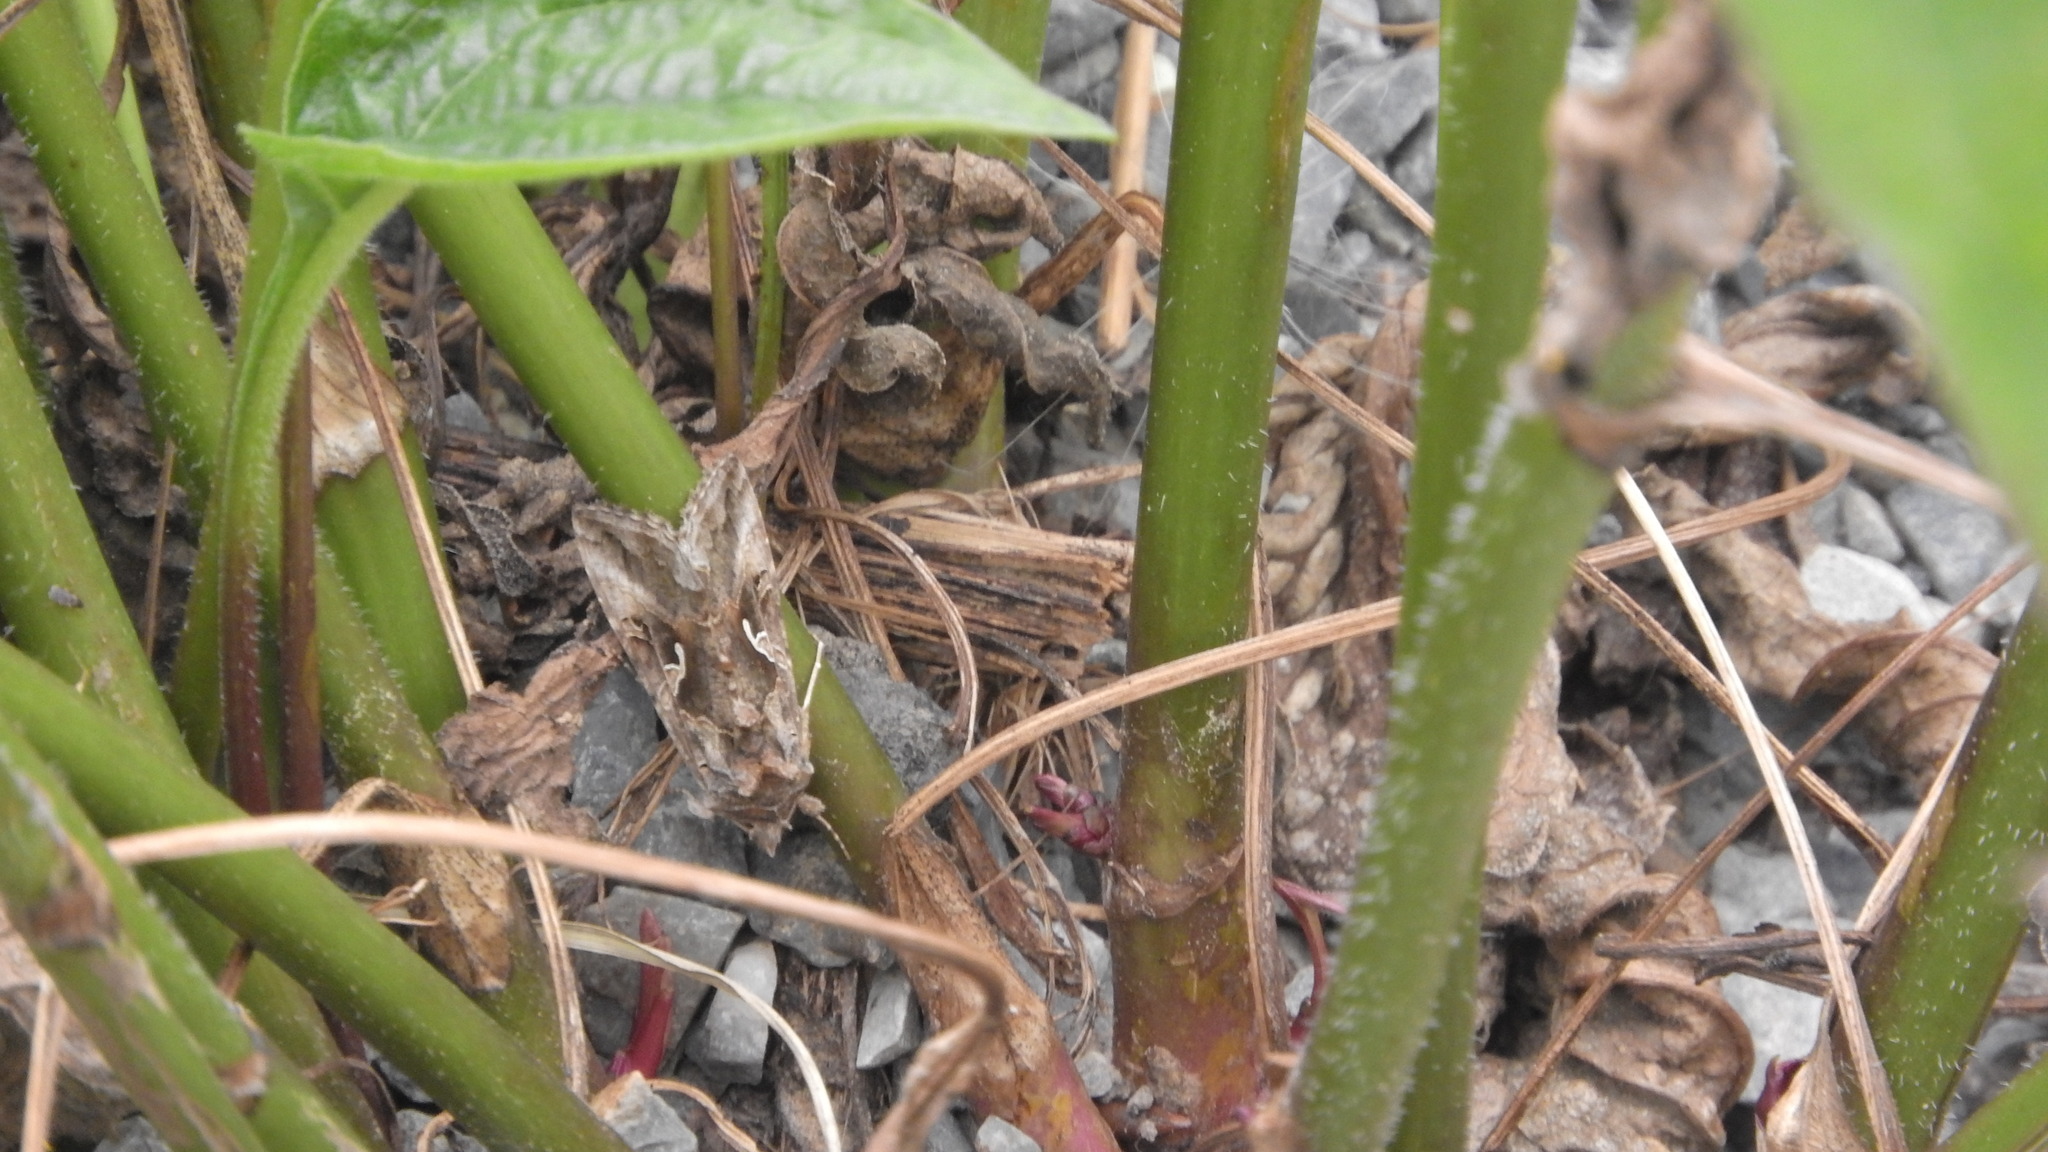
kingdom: Animalia
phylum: Arthropoda
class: Insecta
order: Lepidoptera
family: Noctuidae
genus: Autographa
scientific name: Autographa gamma
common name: Silver y
